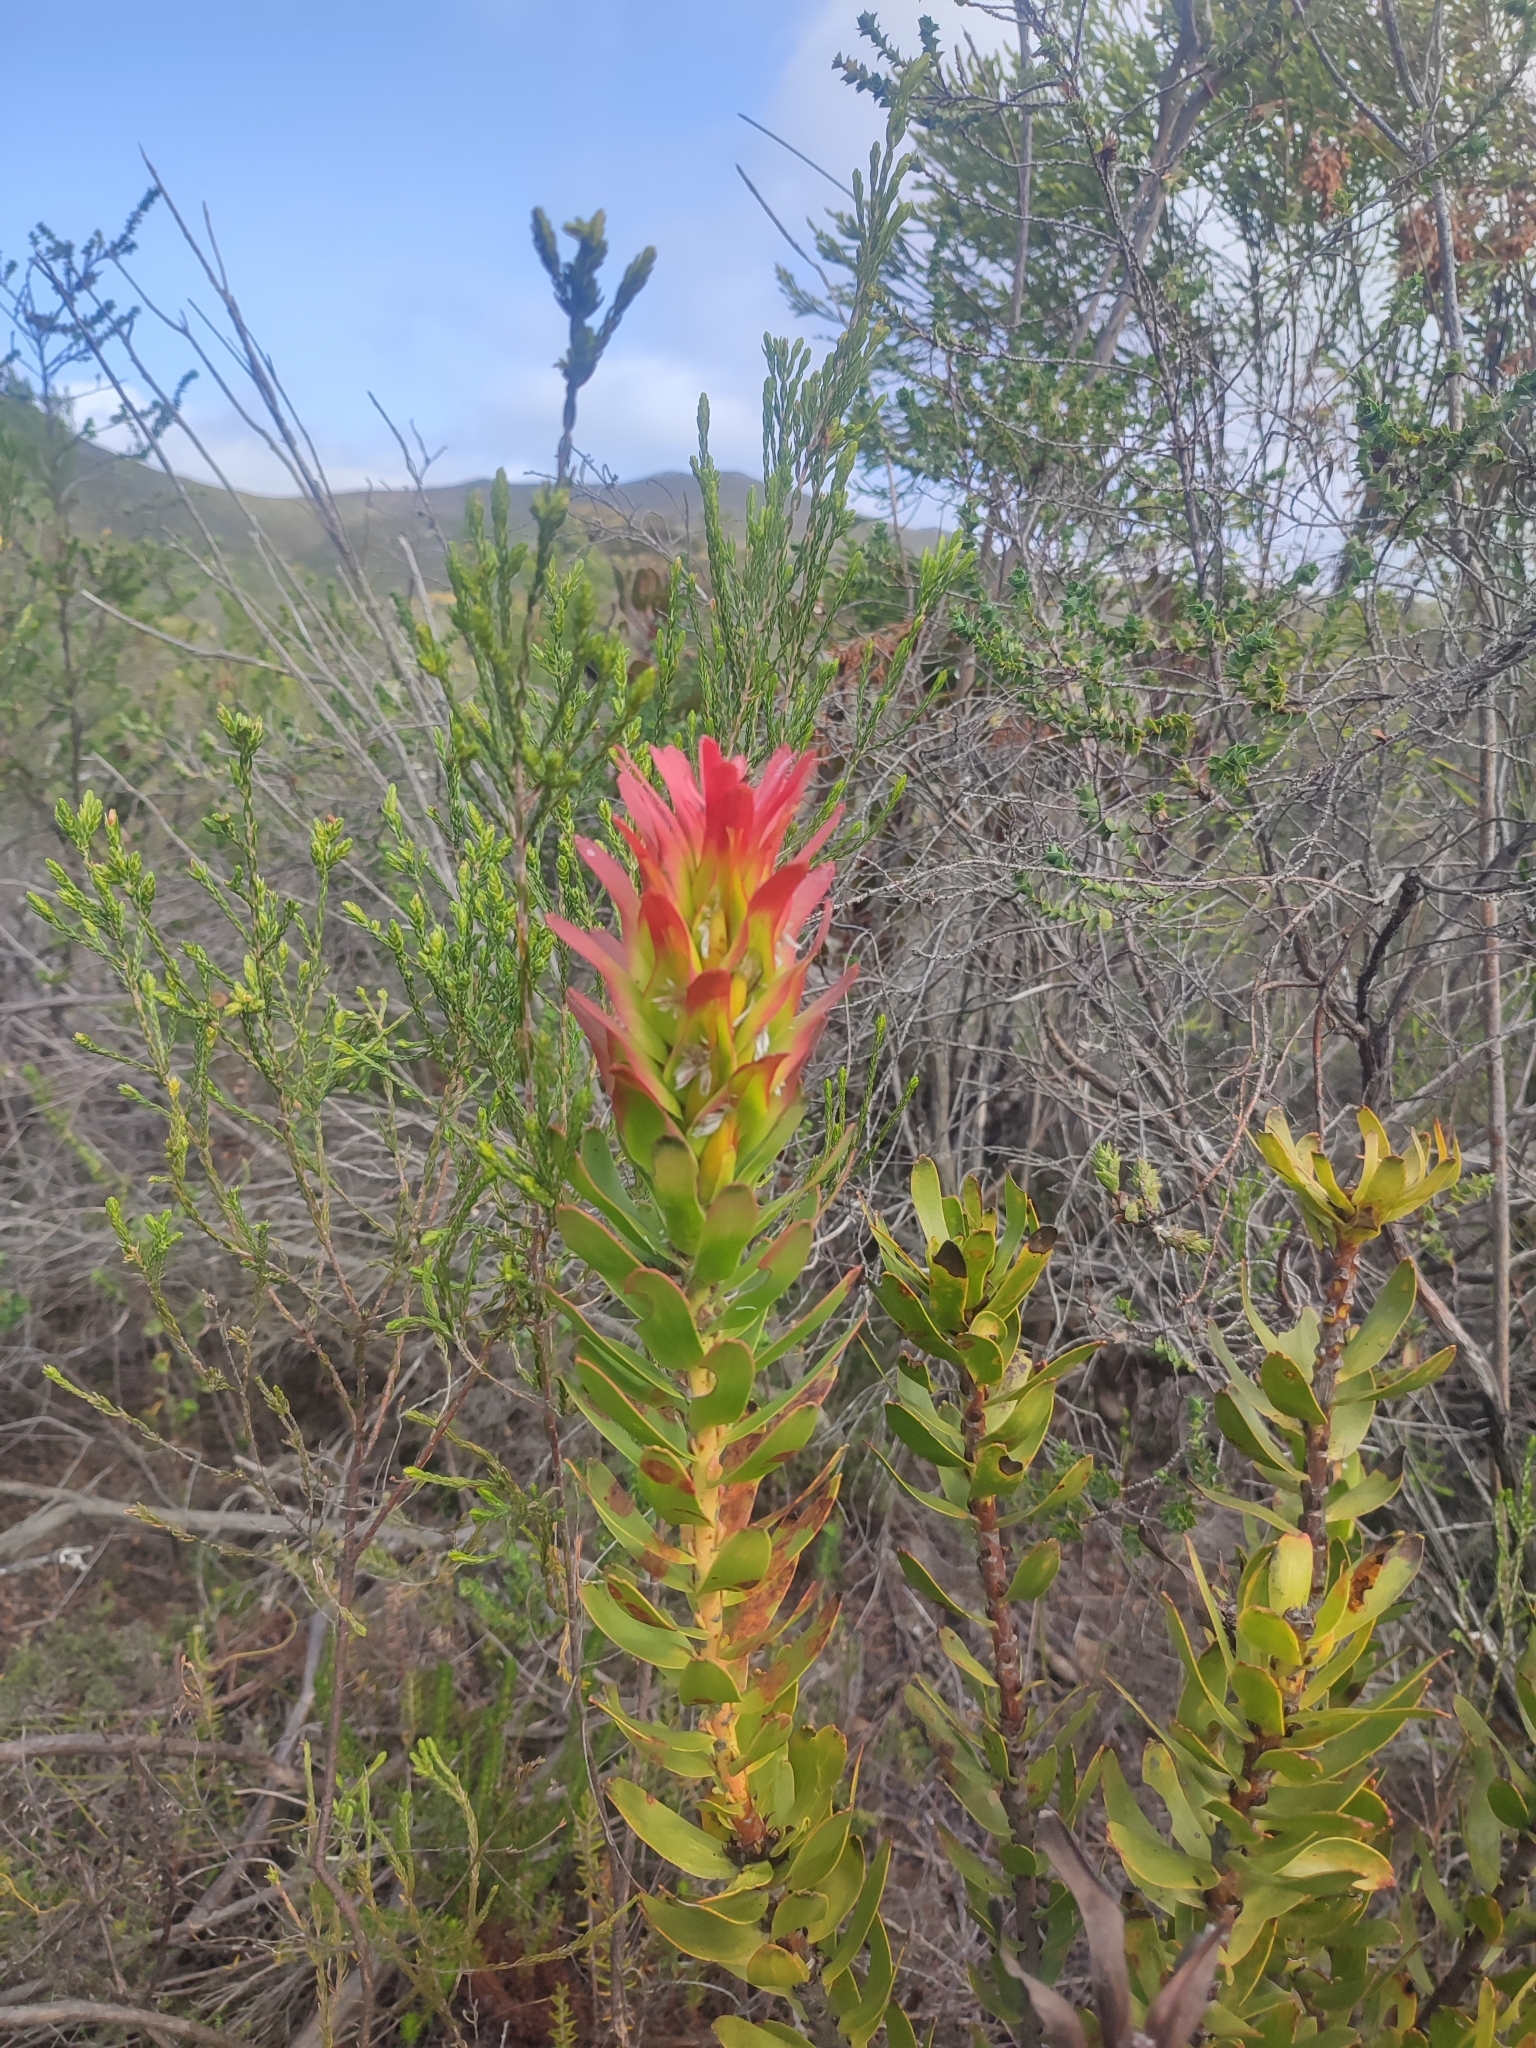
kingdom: Plantae
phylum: Tracheophyta
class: Magnoliopsida
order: Proteales
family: Proteaceae
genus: Mimetes
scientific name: Mimetes cucullatus
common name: Common pagoda
